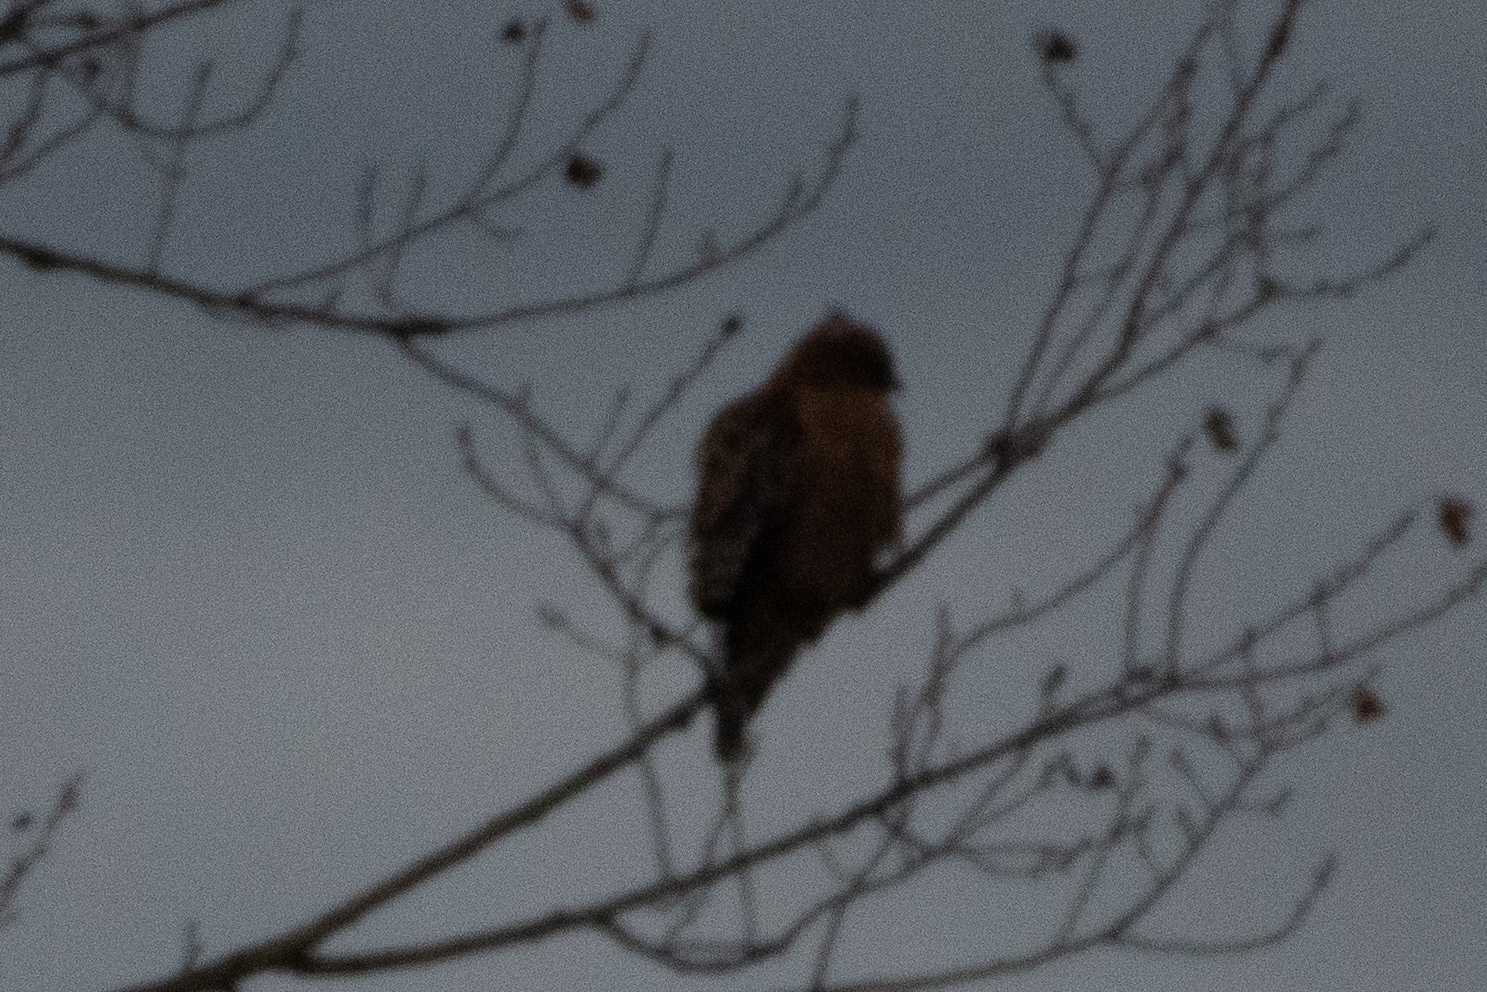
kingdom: Animalia
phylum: Chordata
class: Aves
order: Accipitriformes
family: Accipitridae
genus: Buteo
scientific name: Buteo lineatus
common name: Red-shouldered hawk
